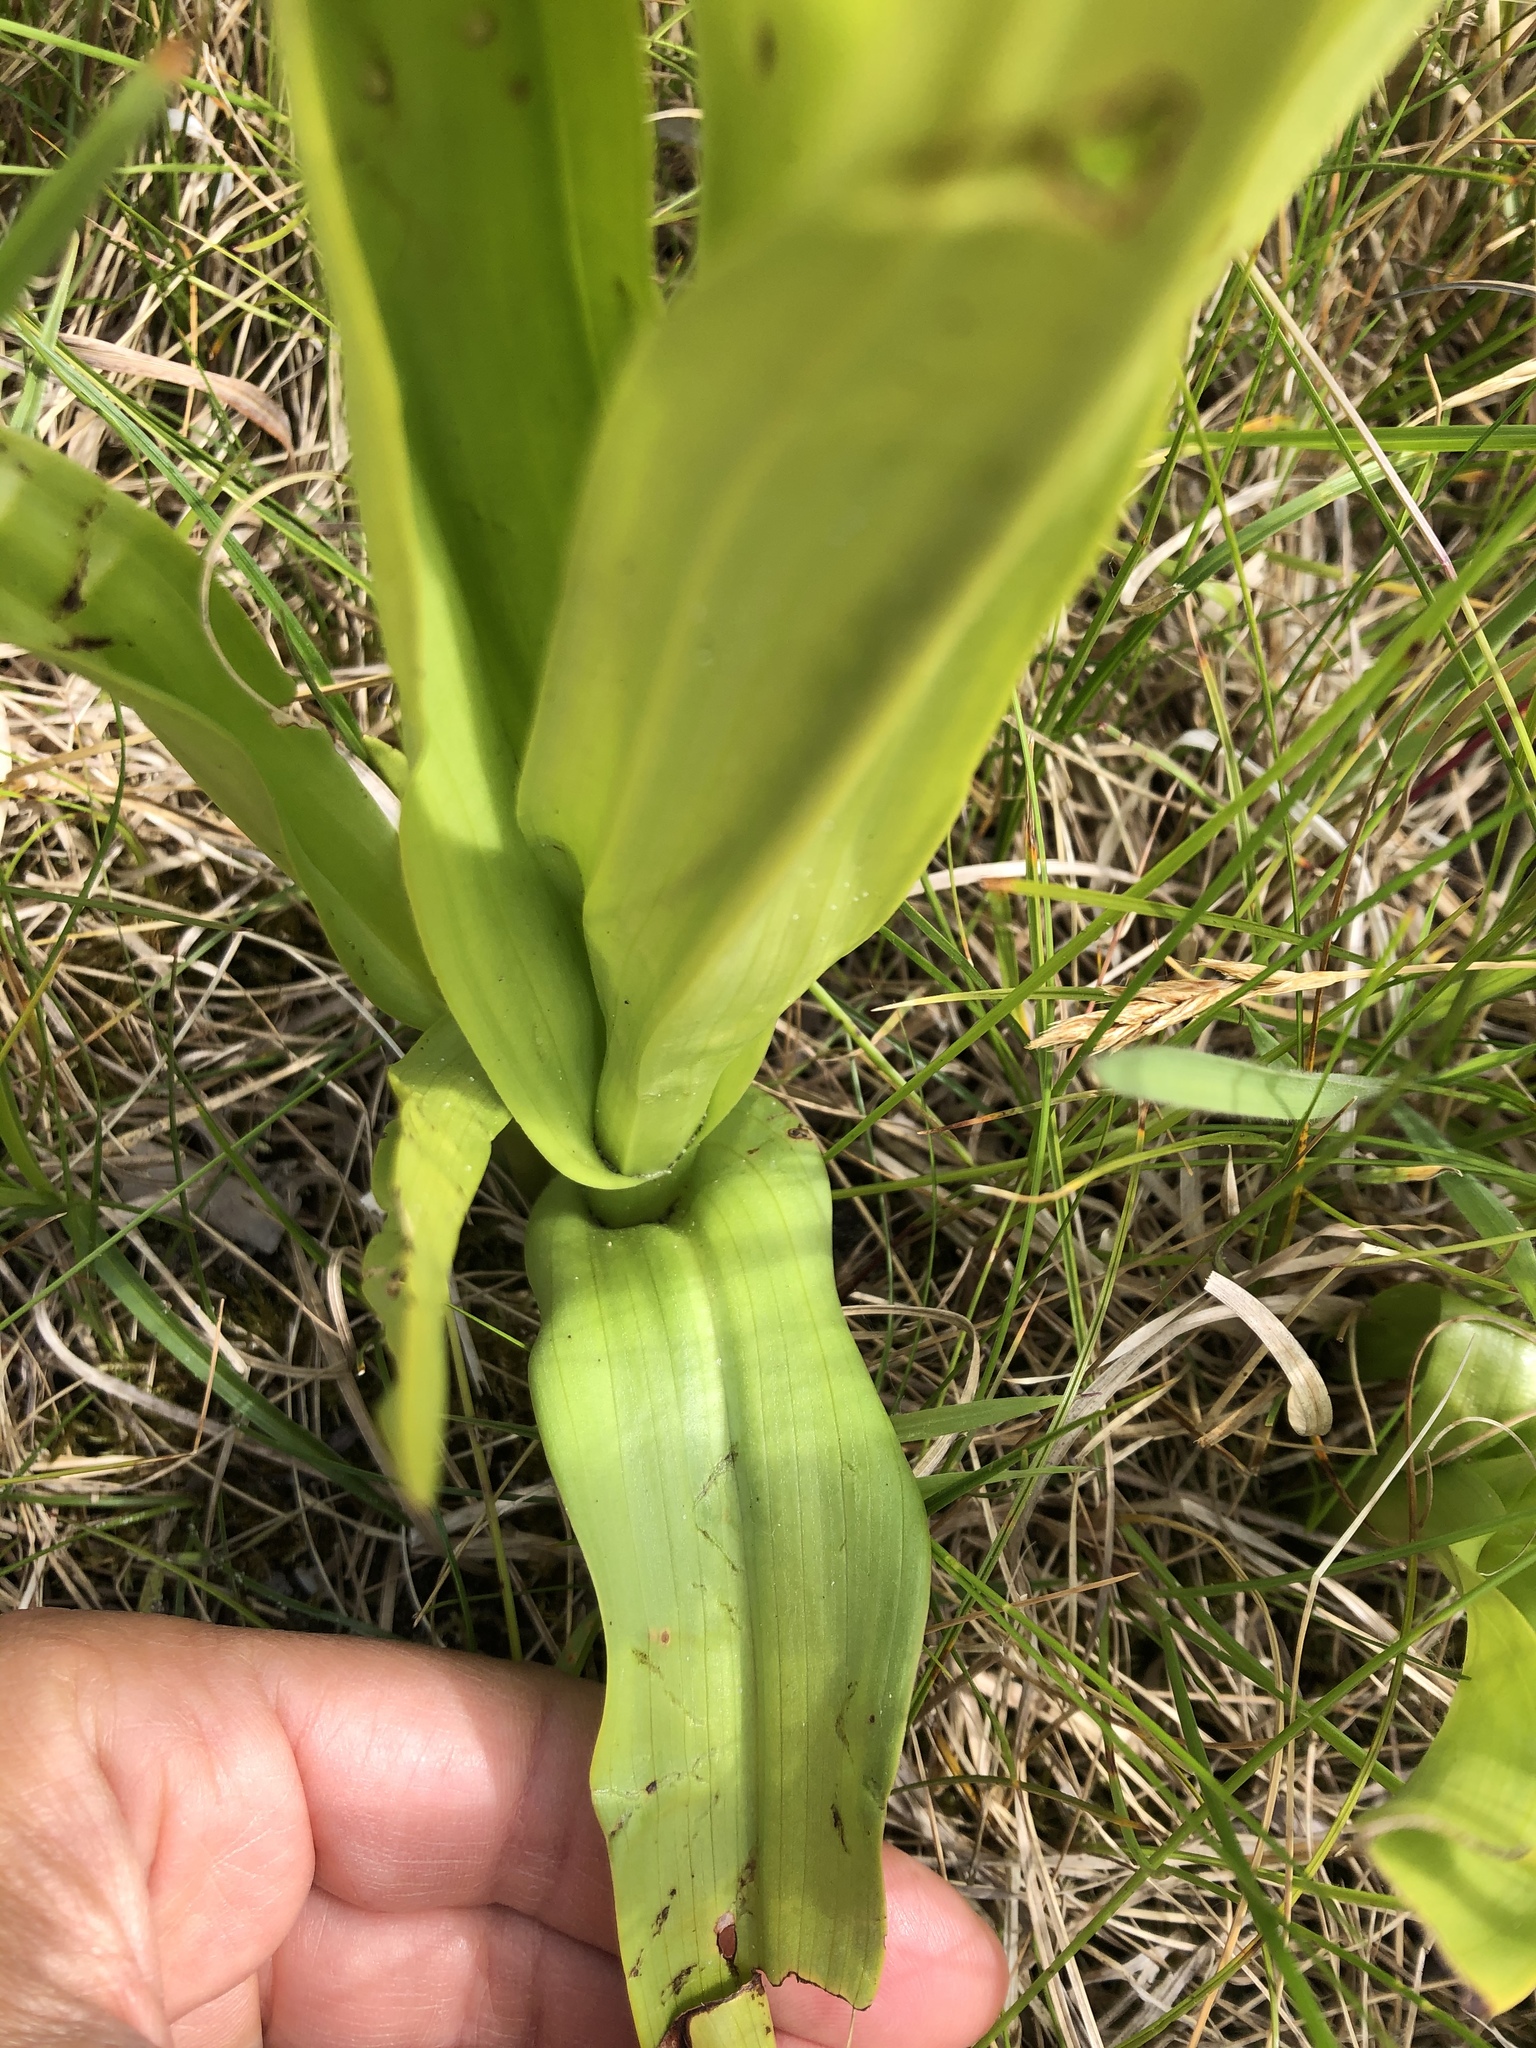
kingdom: Plantae
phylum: Tracheophyta
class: Liliopsida
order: Asparagales
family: Orchidaceae
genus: Dactylorhiza
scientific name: Dactylorhiza incarnata
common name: Early marsh-orchid
